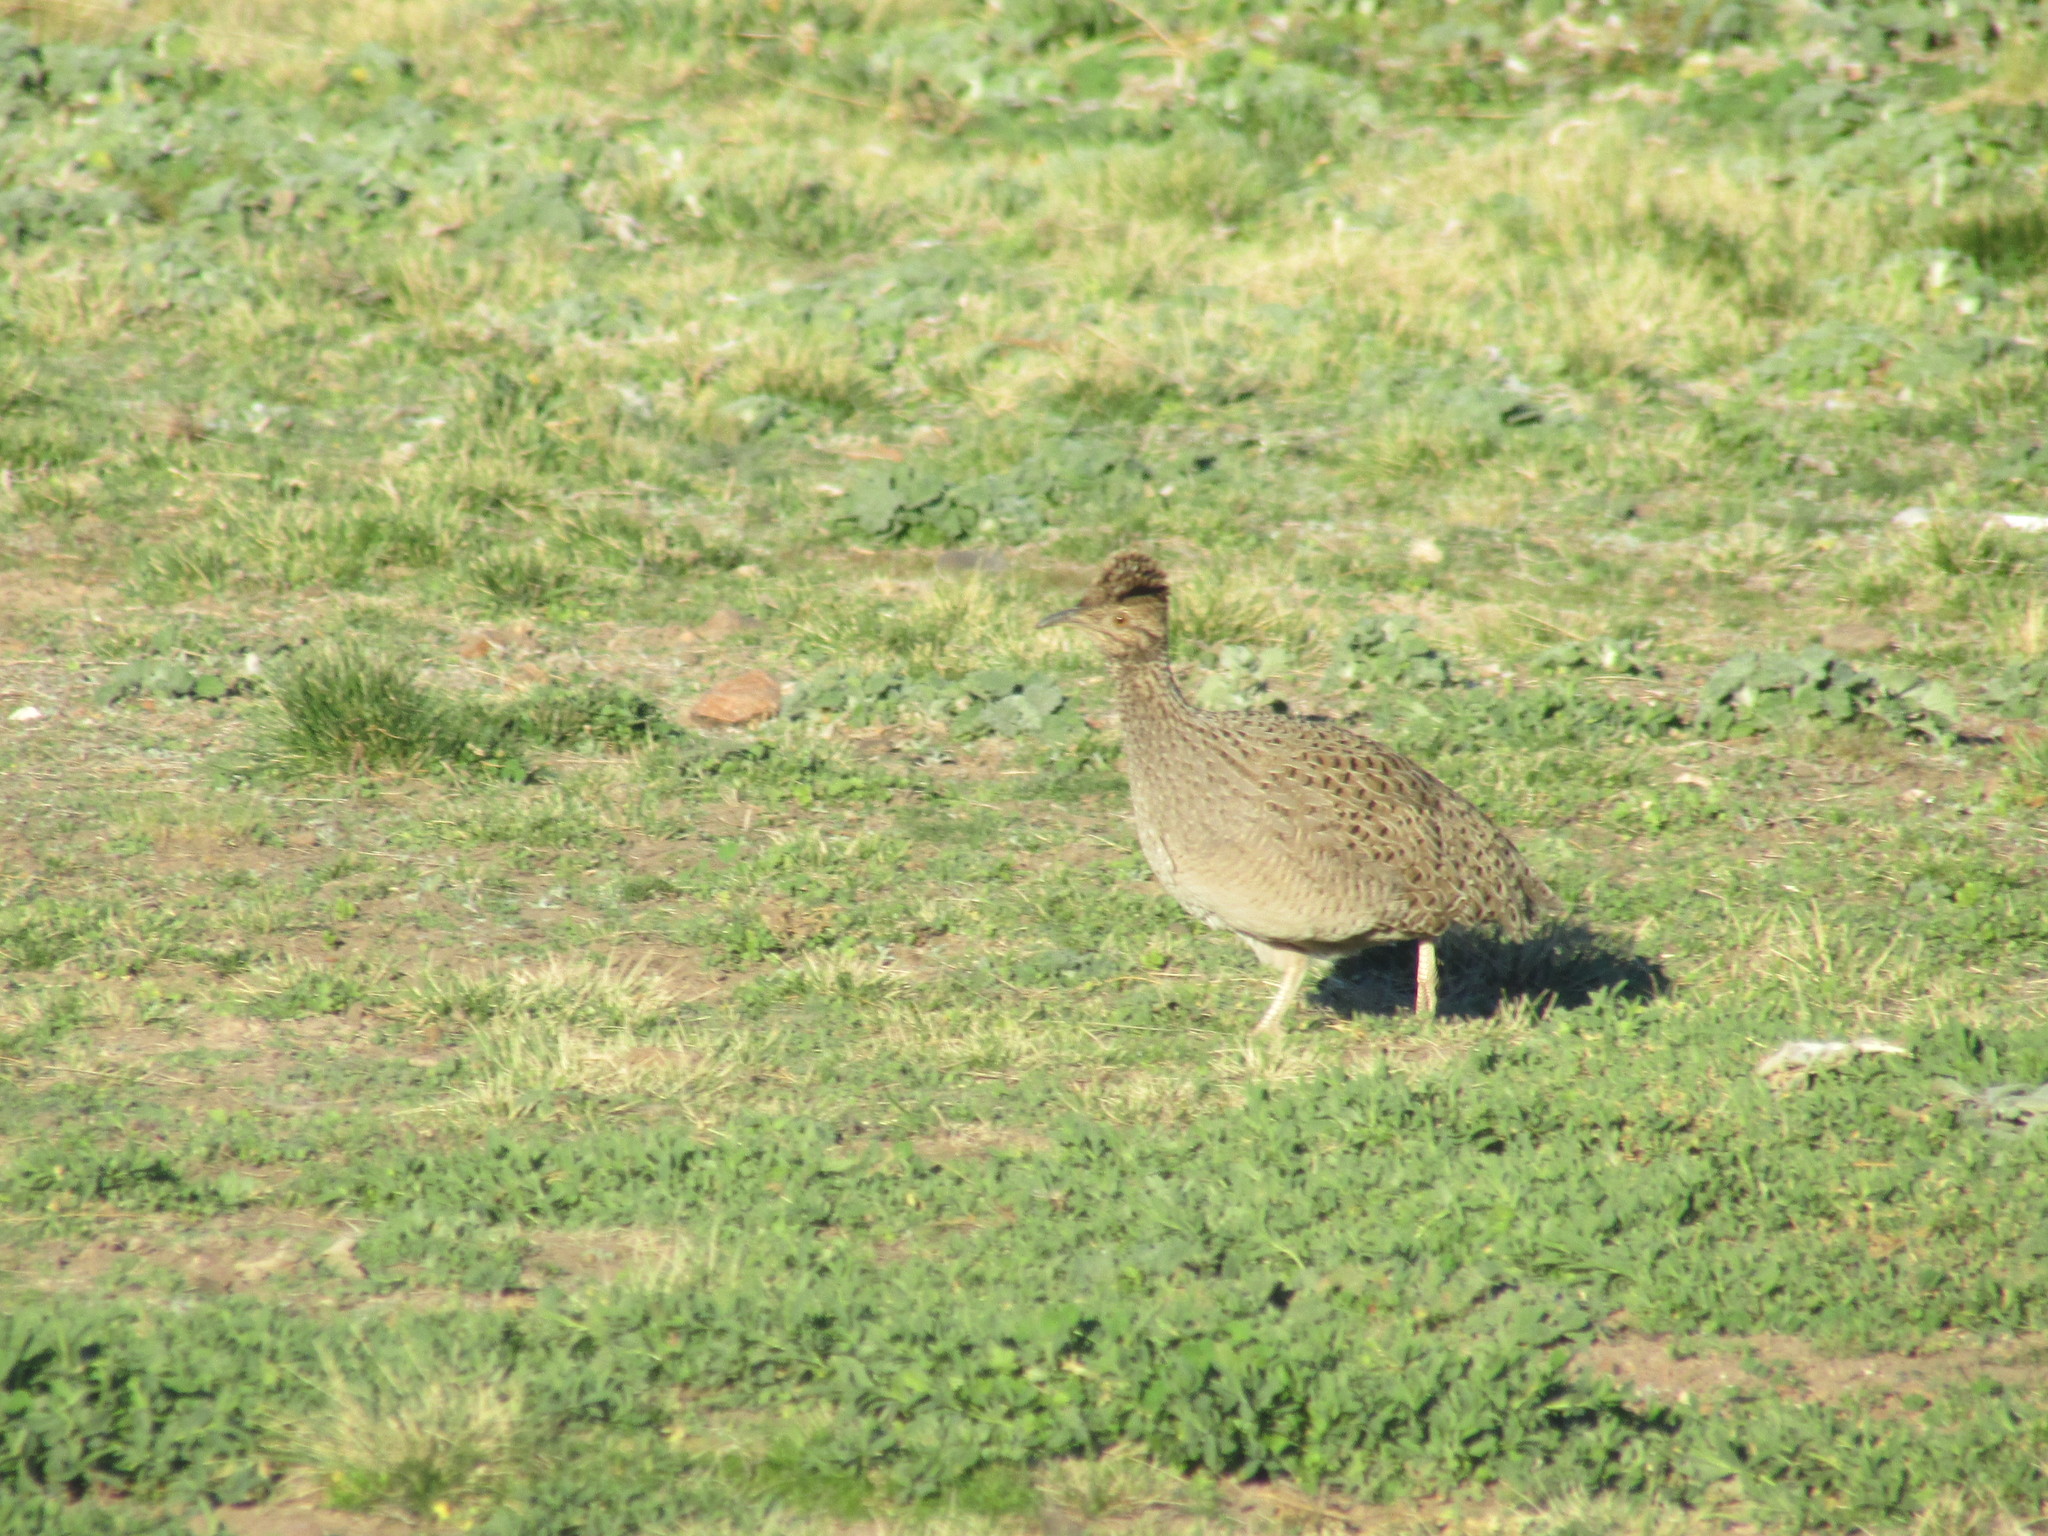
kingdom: Animalia
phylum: Chordata
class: Aves
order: Tinamiformes
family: Tinamidae
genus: Nothoprocta
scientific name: Nothoprocta cinerascens
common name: Brushland tinamou
